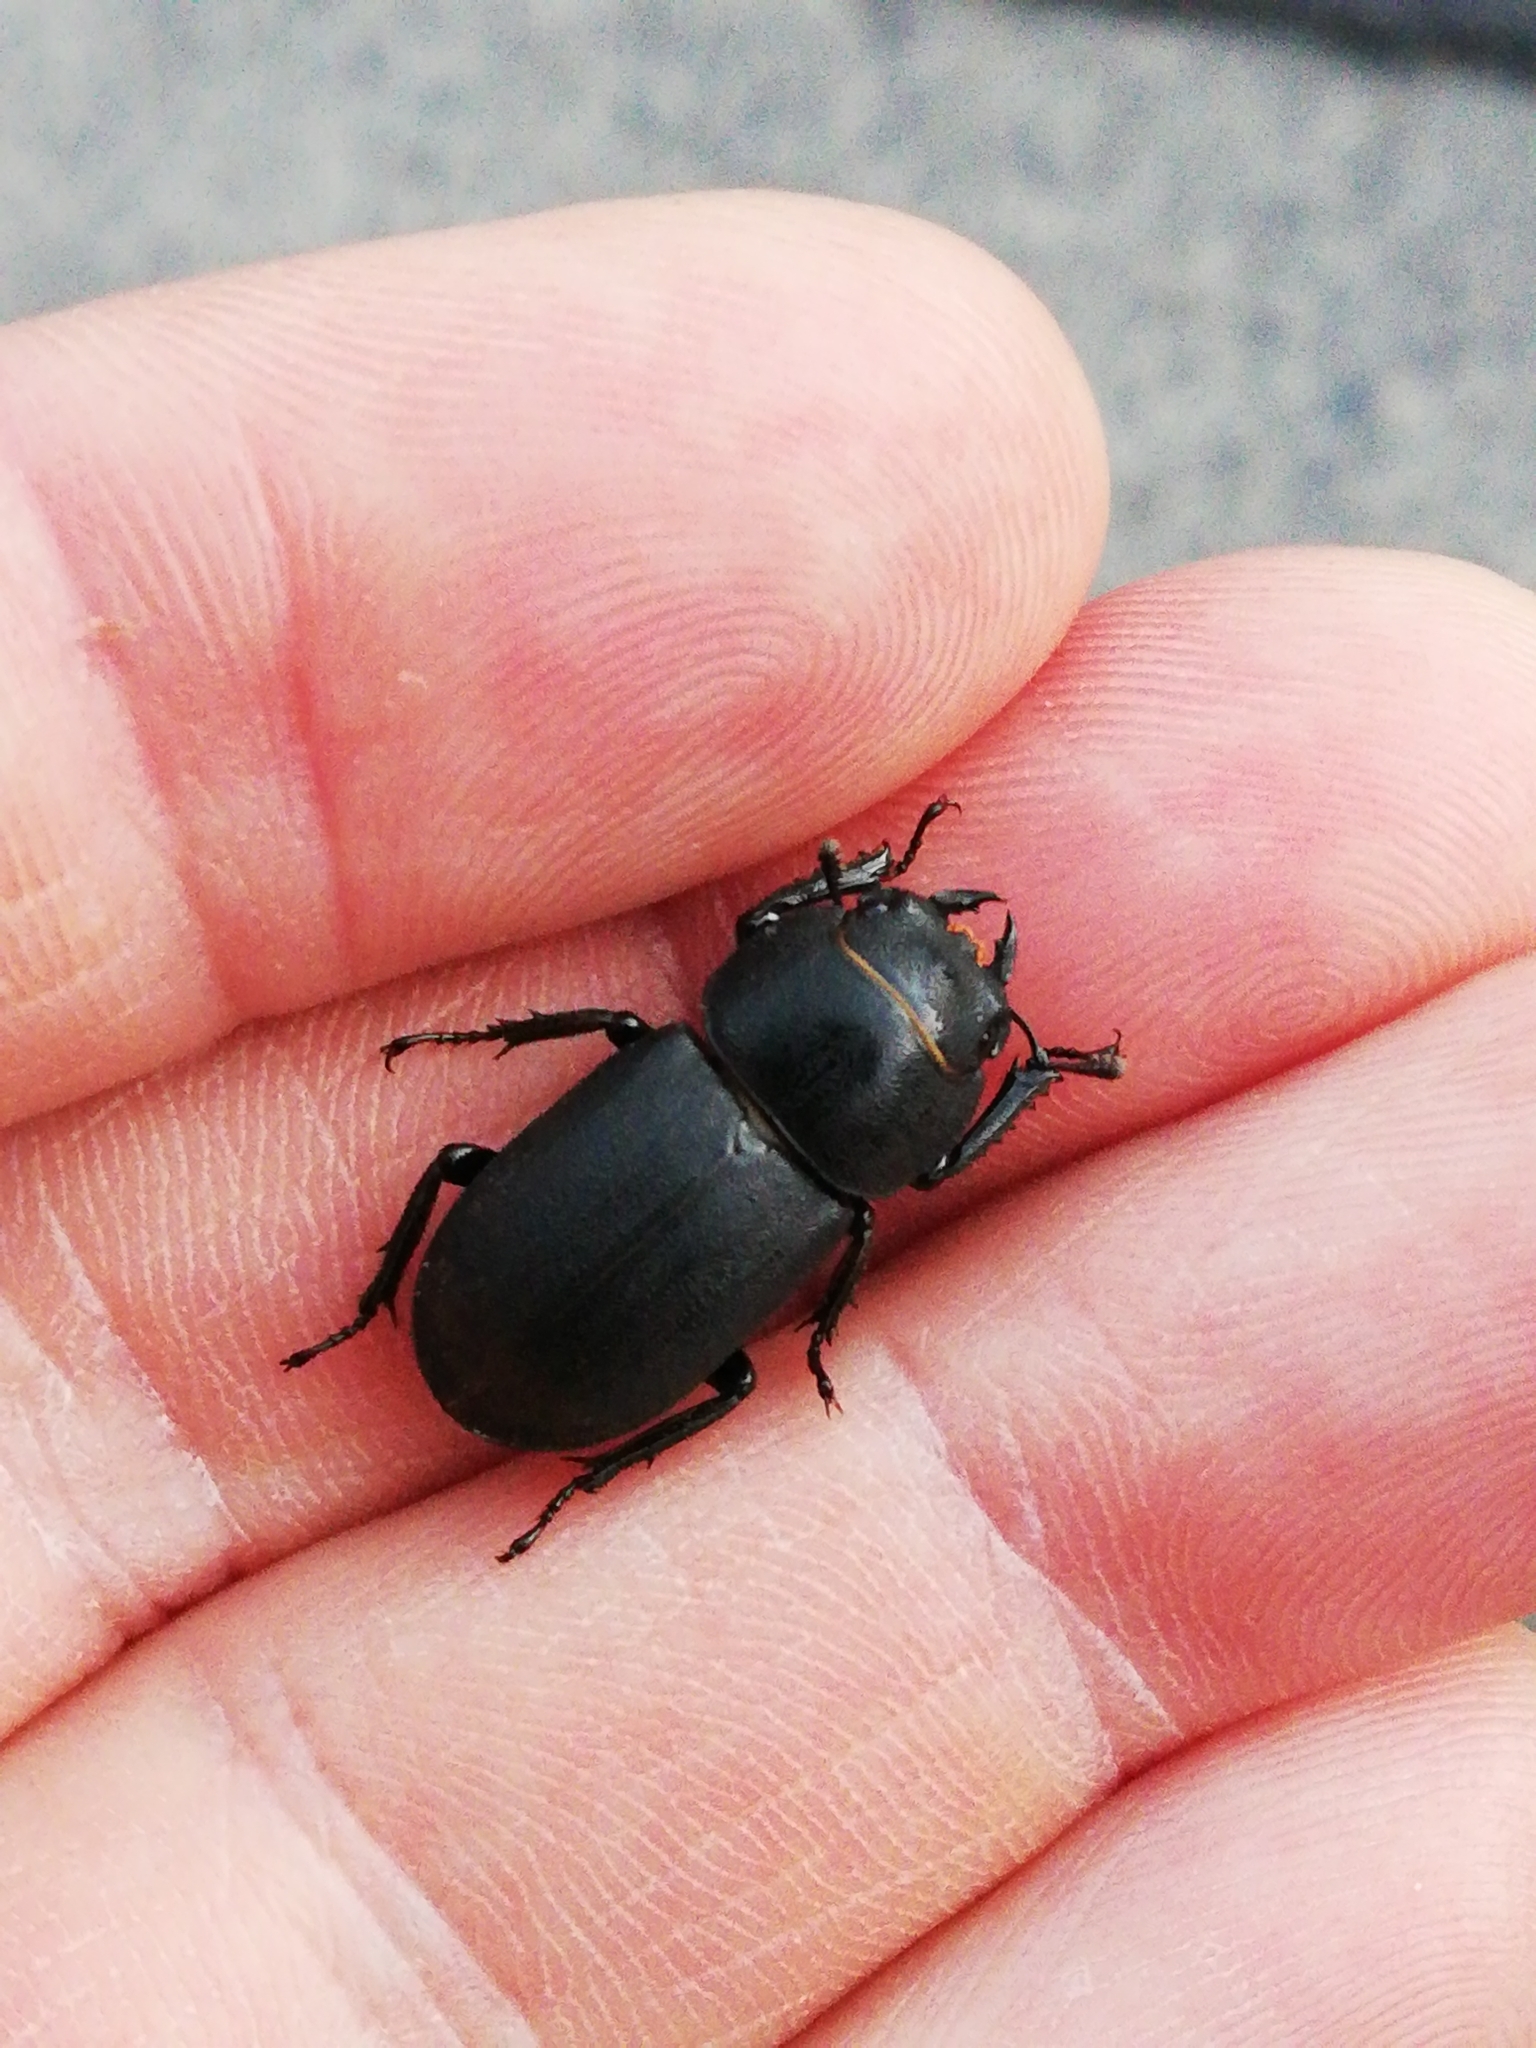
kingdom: Animalia
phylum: Arthropoda
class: Insecta
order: Coleoptera
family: Lucanidae
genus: Dorcus
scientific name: Dorcus parallelipipedus
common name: Lesser stag beetle
